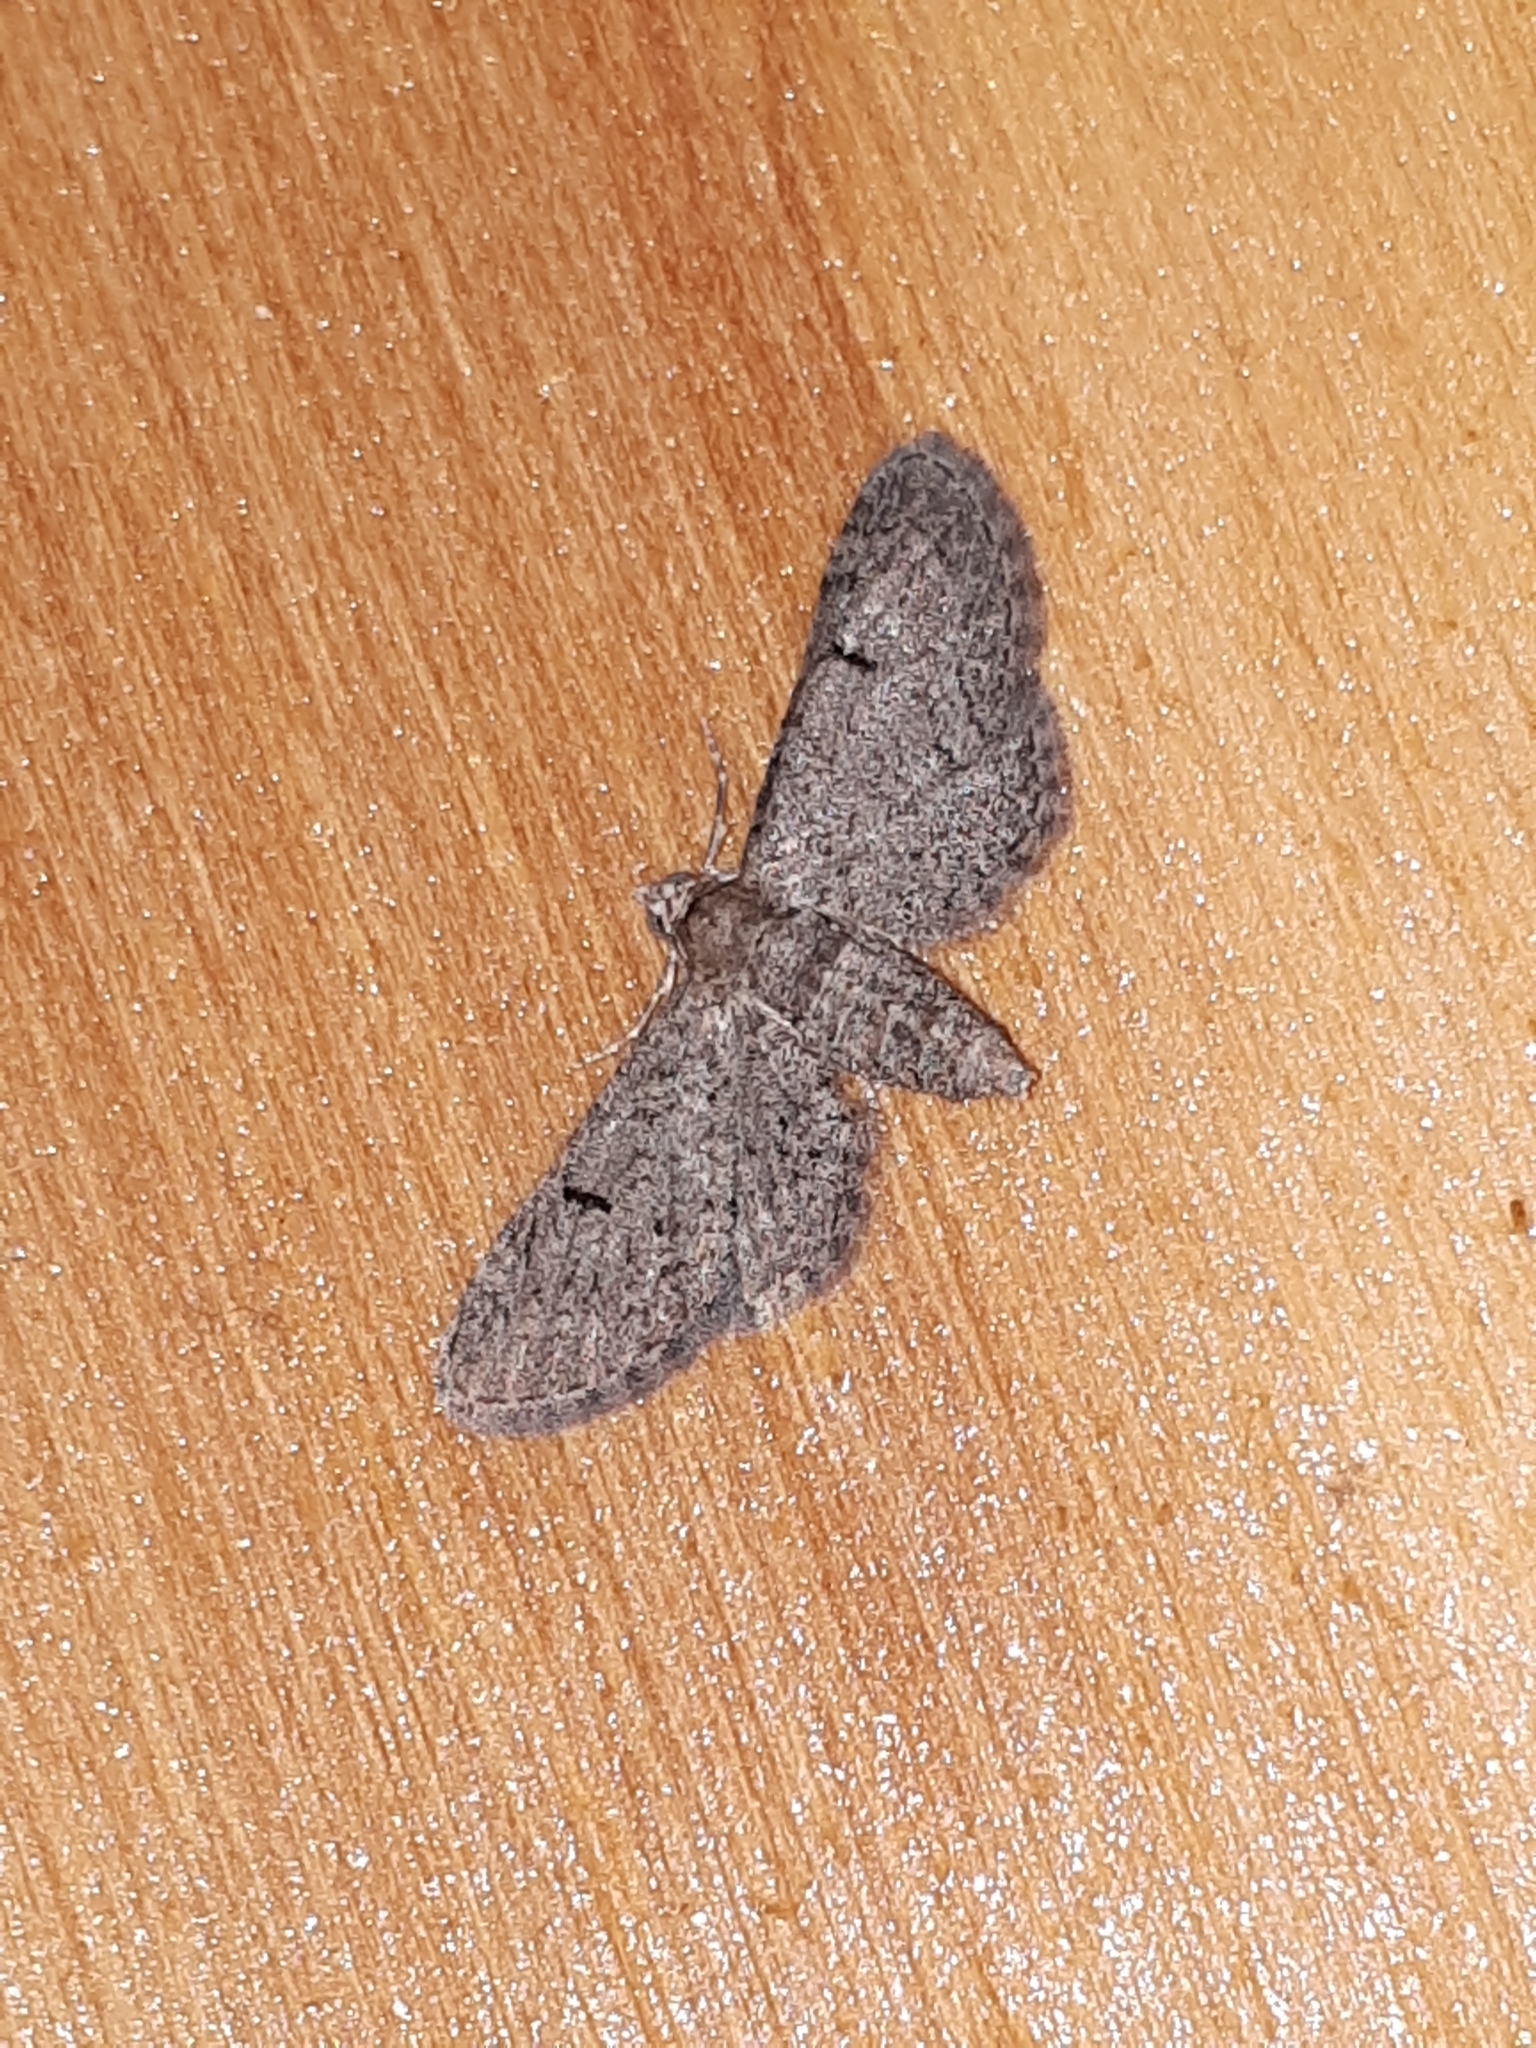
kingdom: Animalia
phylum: Arthropoda
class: Insecta
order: Lepidoptera
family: Geometridae
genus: Eupithecia
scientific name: Eupithecia ultimaria
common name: Channel islands pug
